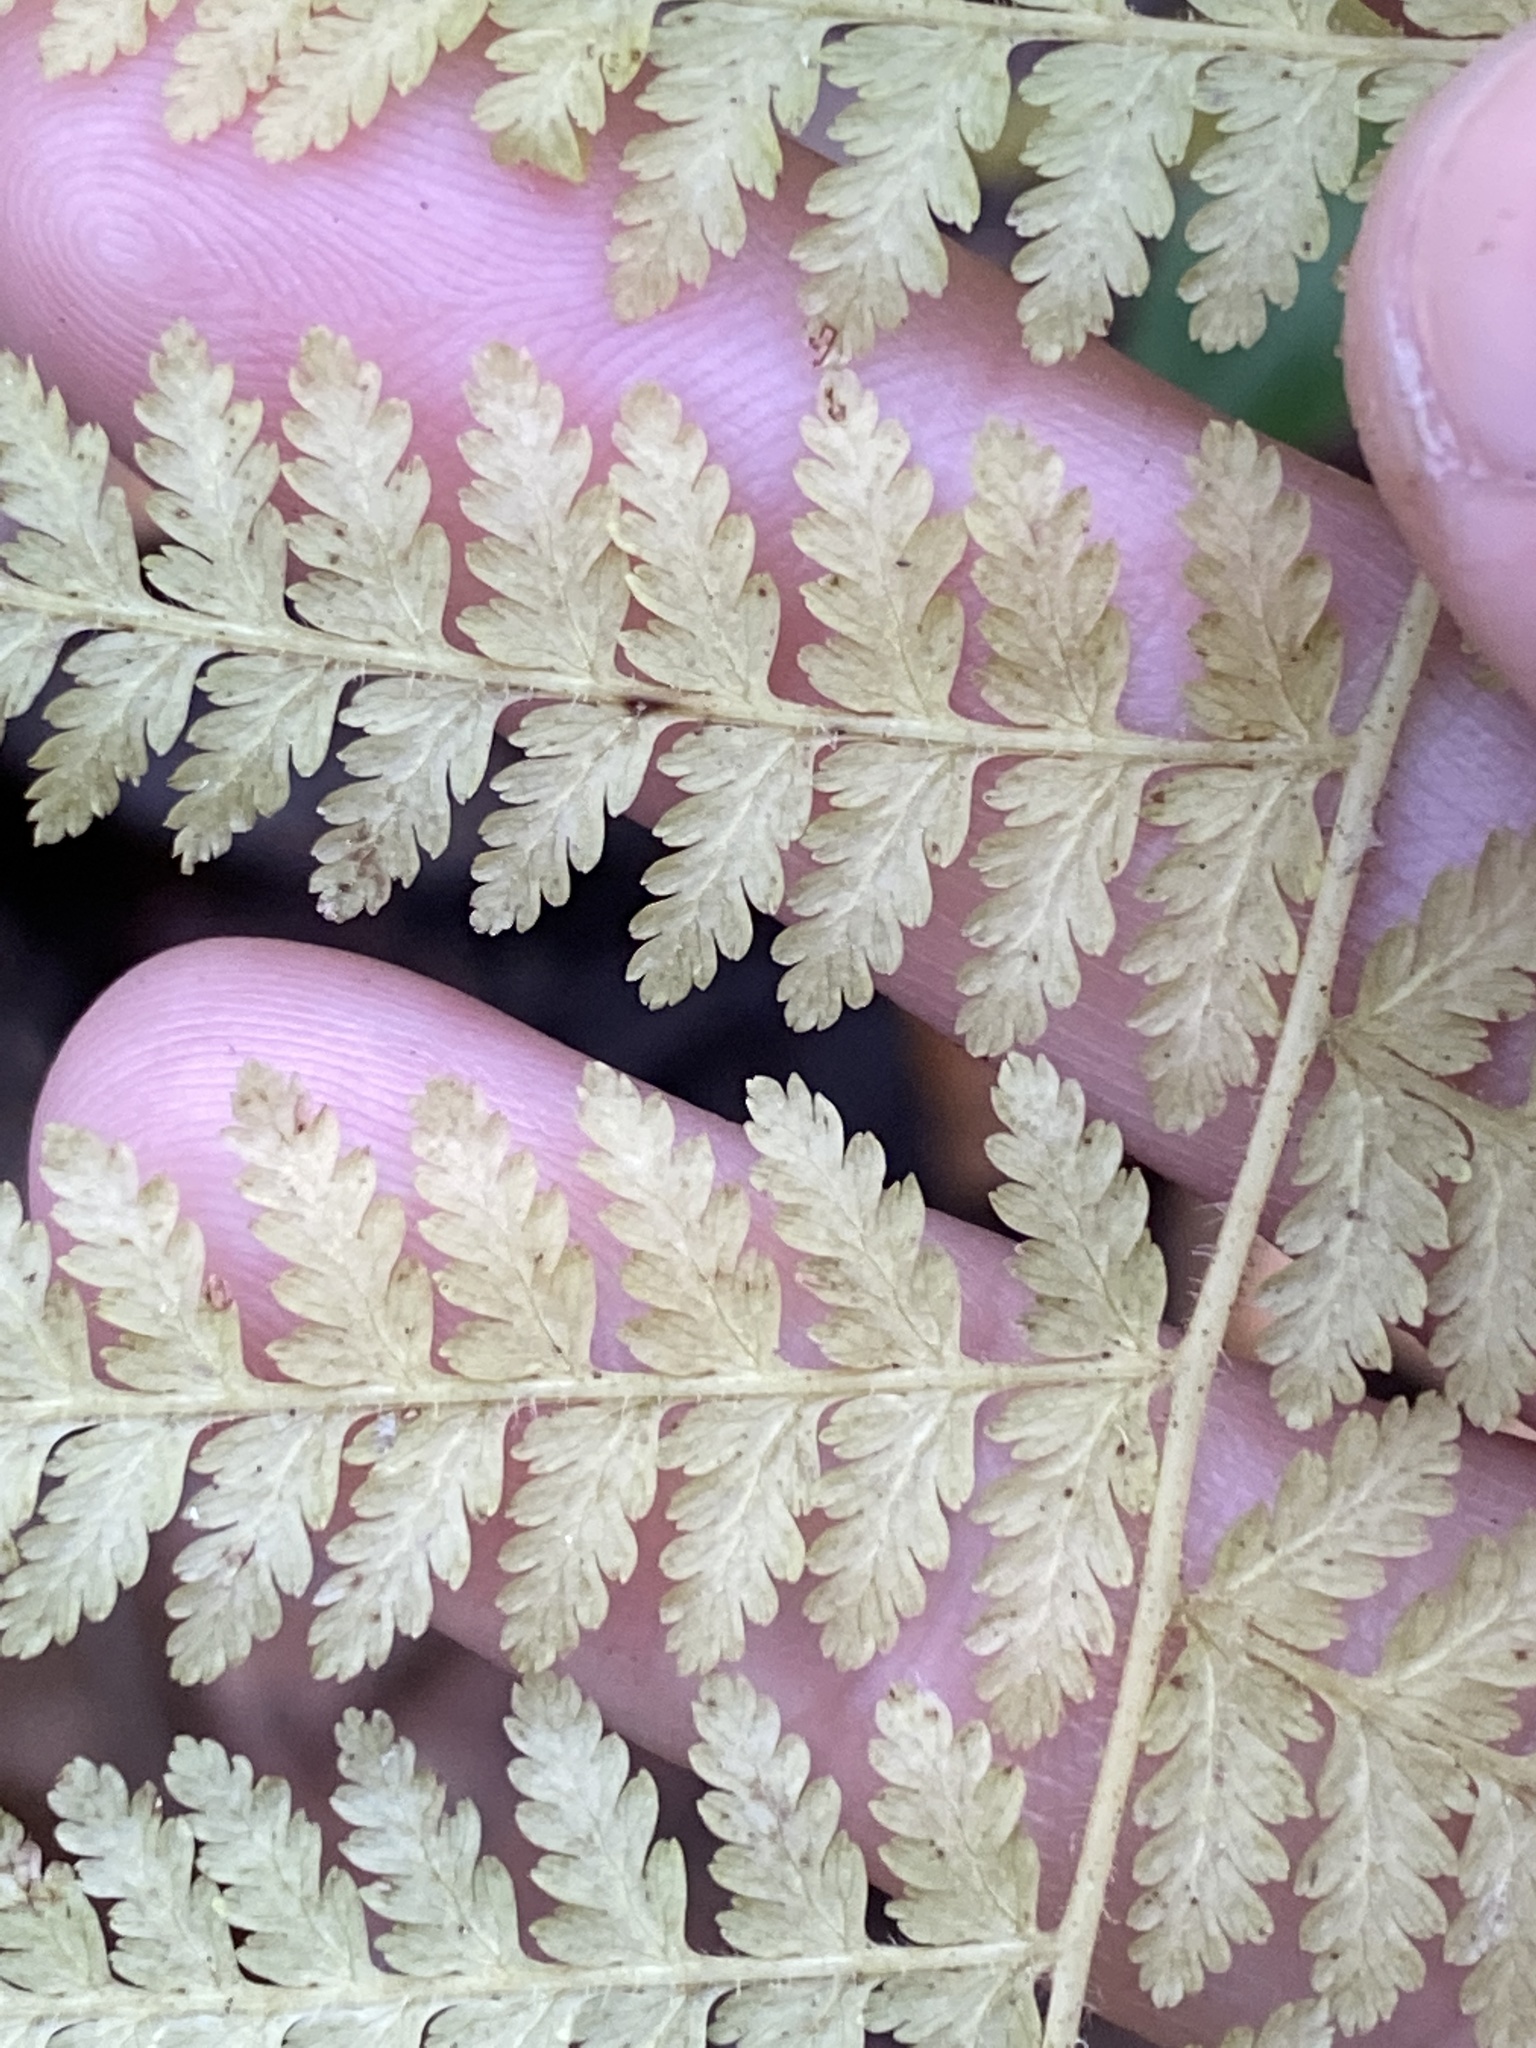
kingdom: Plantae
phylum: Tracheophyta
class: Polypodiopsida
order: Polypodiales
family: Dennstaedtiaceae
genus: Sitobolium
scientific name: Sitobolium punctilobum
